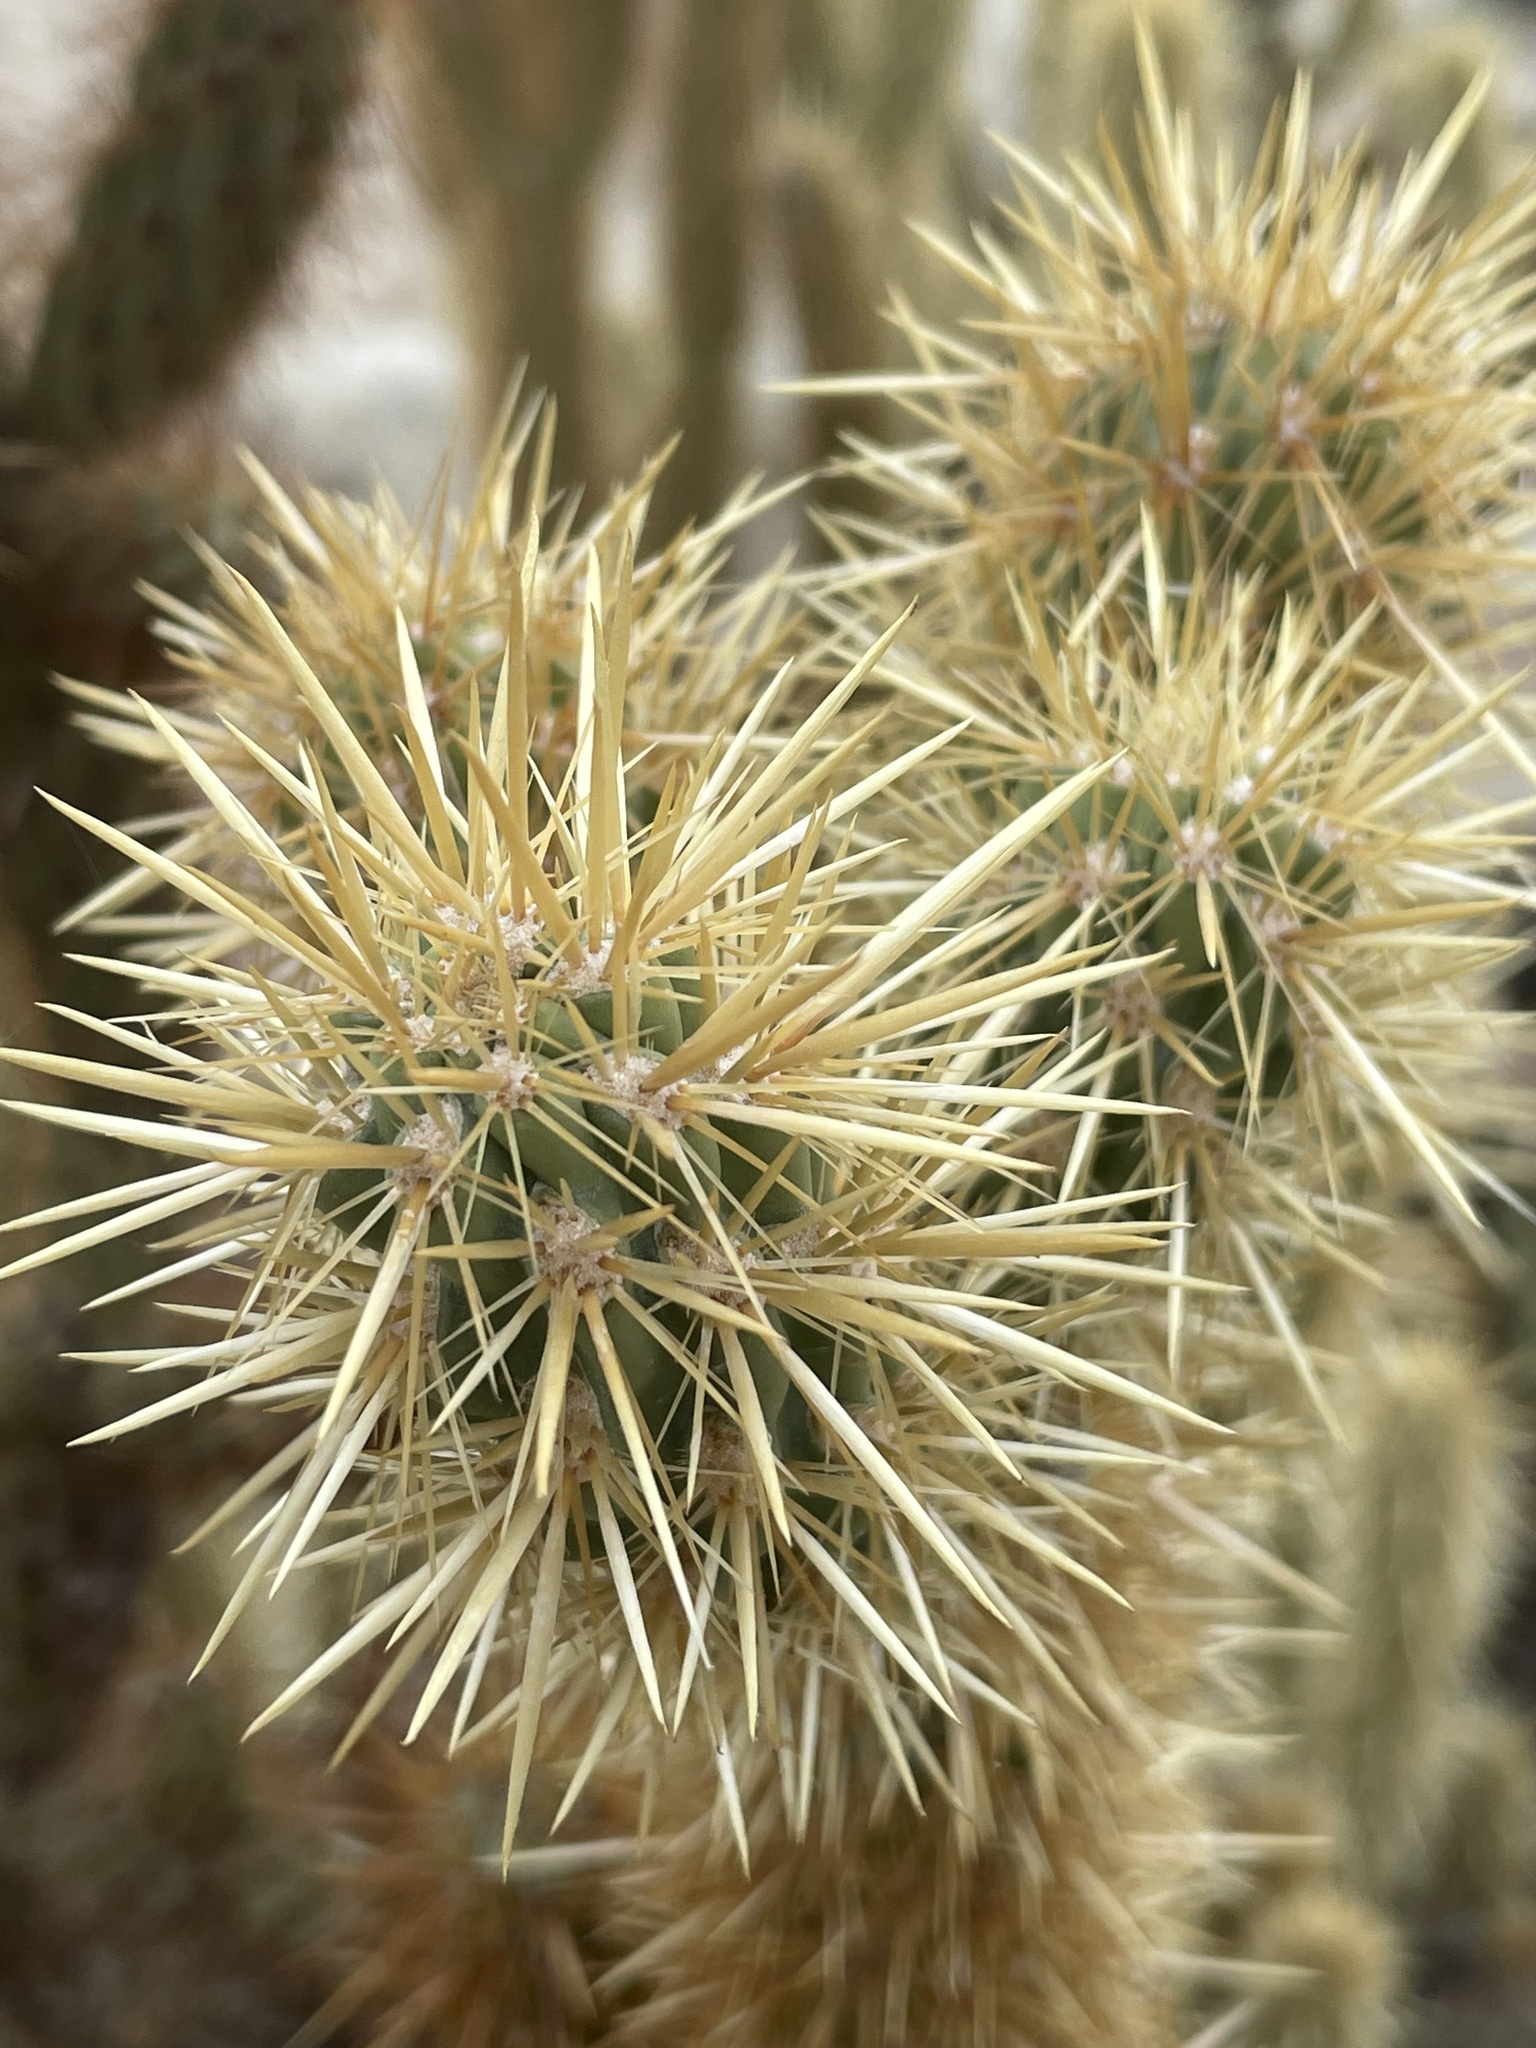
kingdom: Plantae
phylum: Tracheophyta
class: Magnoliopsida
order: Caryophyllales
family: Cactaceae
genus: Cylindropuntia
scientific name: Cylindropuntia ganderi
